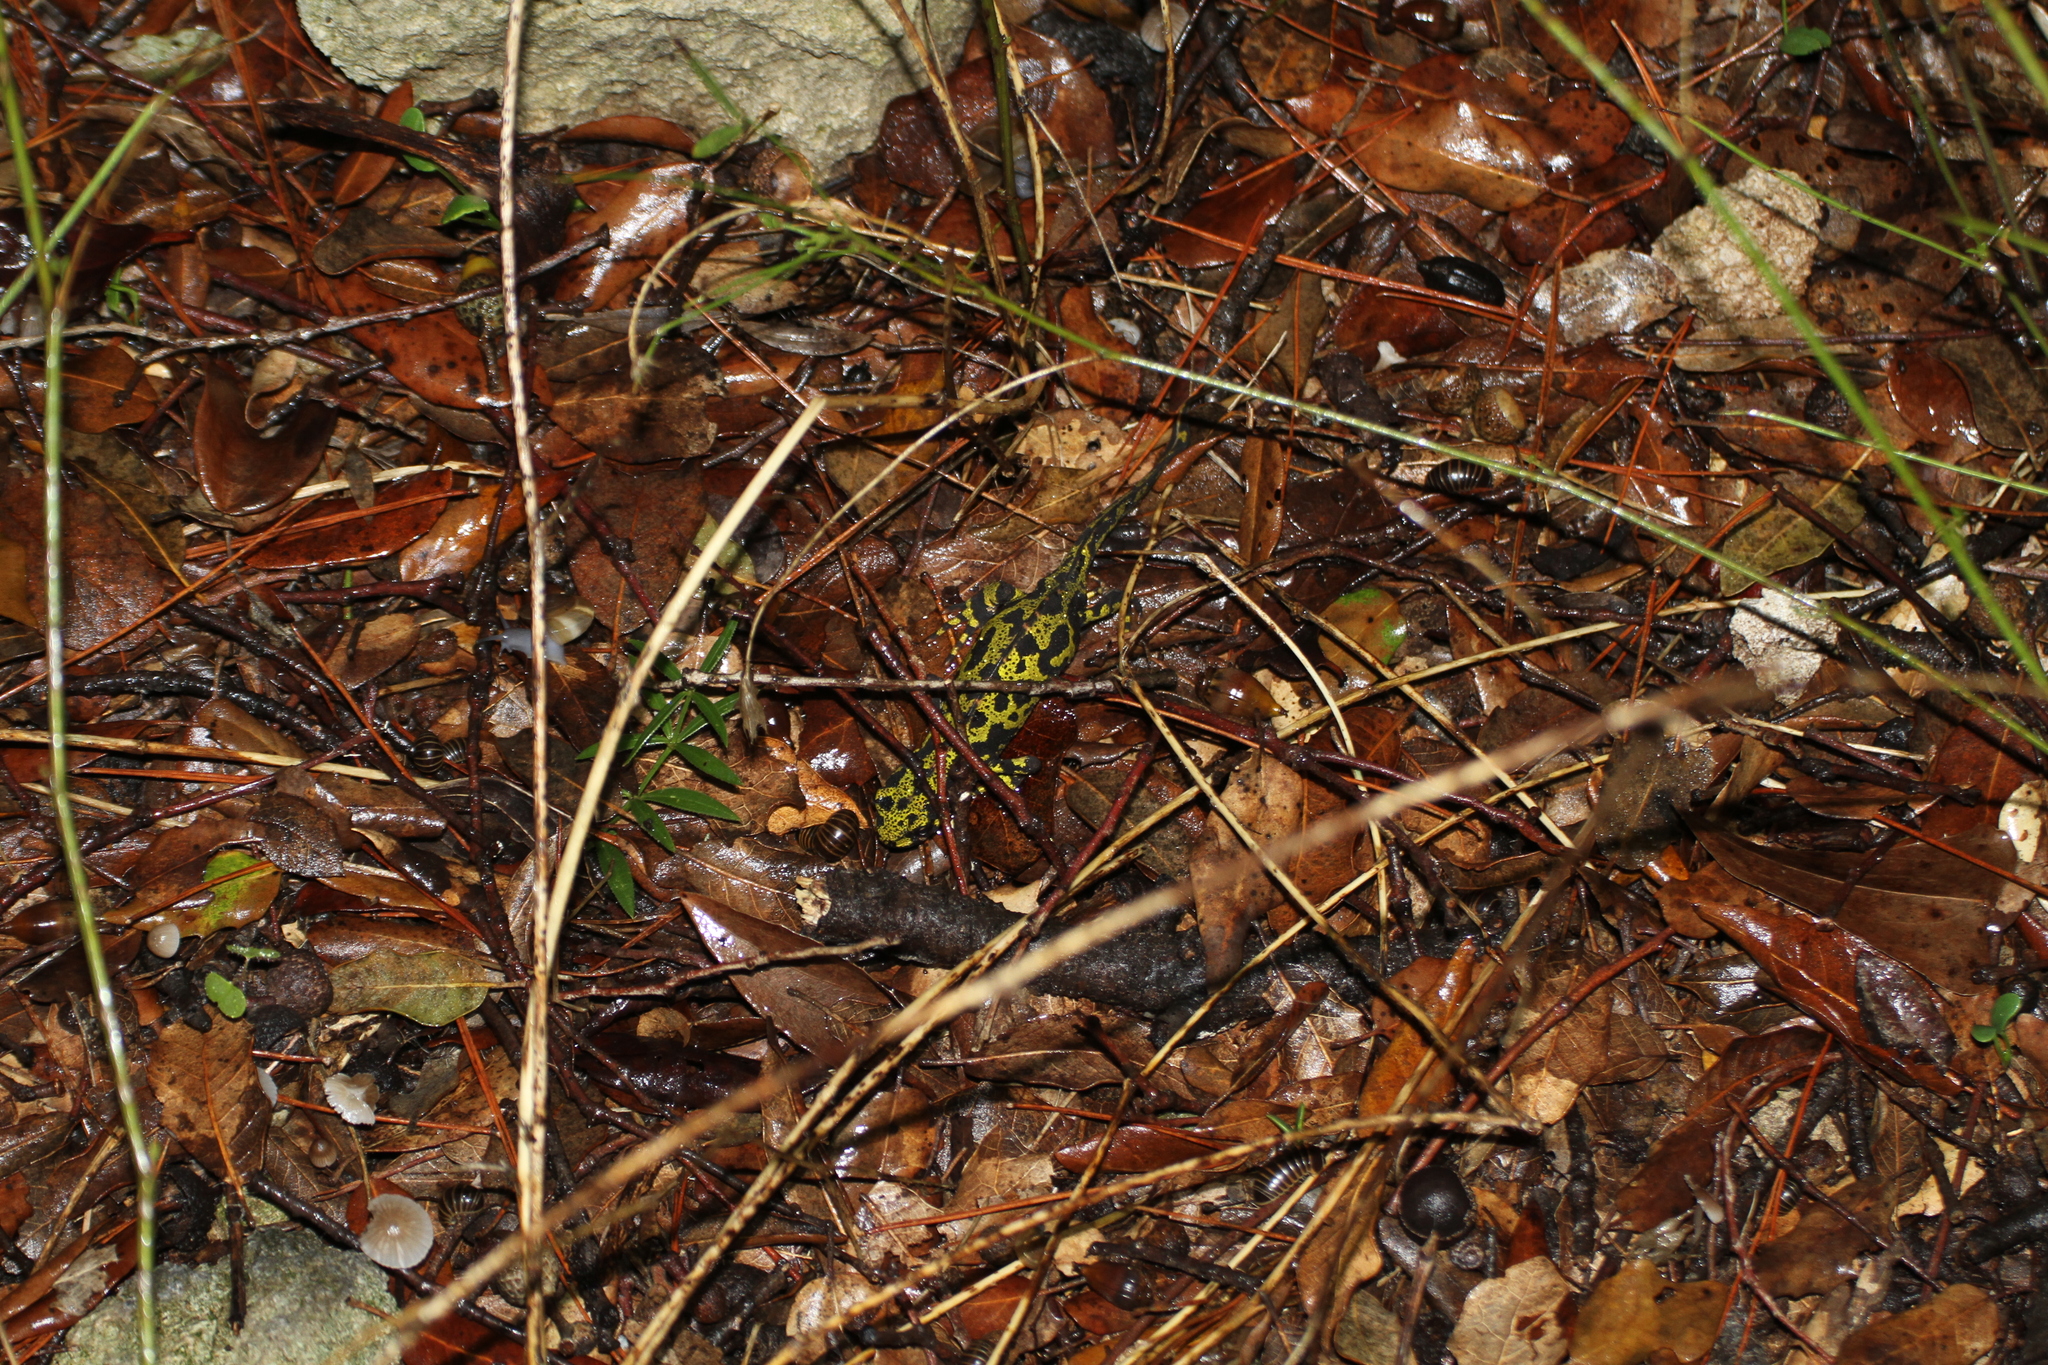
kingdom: Animalia
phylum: Chordata
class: Amphibia
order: Caudata
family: Salamandridae
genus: Triturus
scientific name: Triturus marmoratus
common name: Marbled newt
